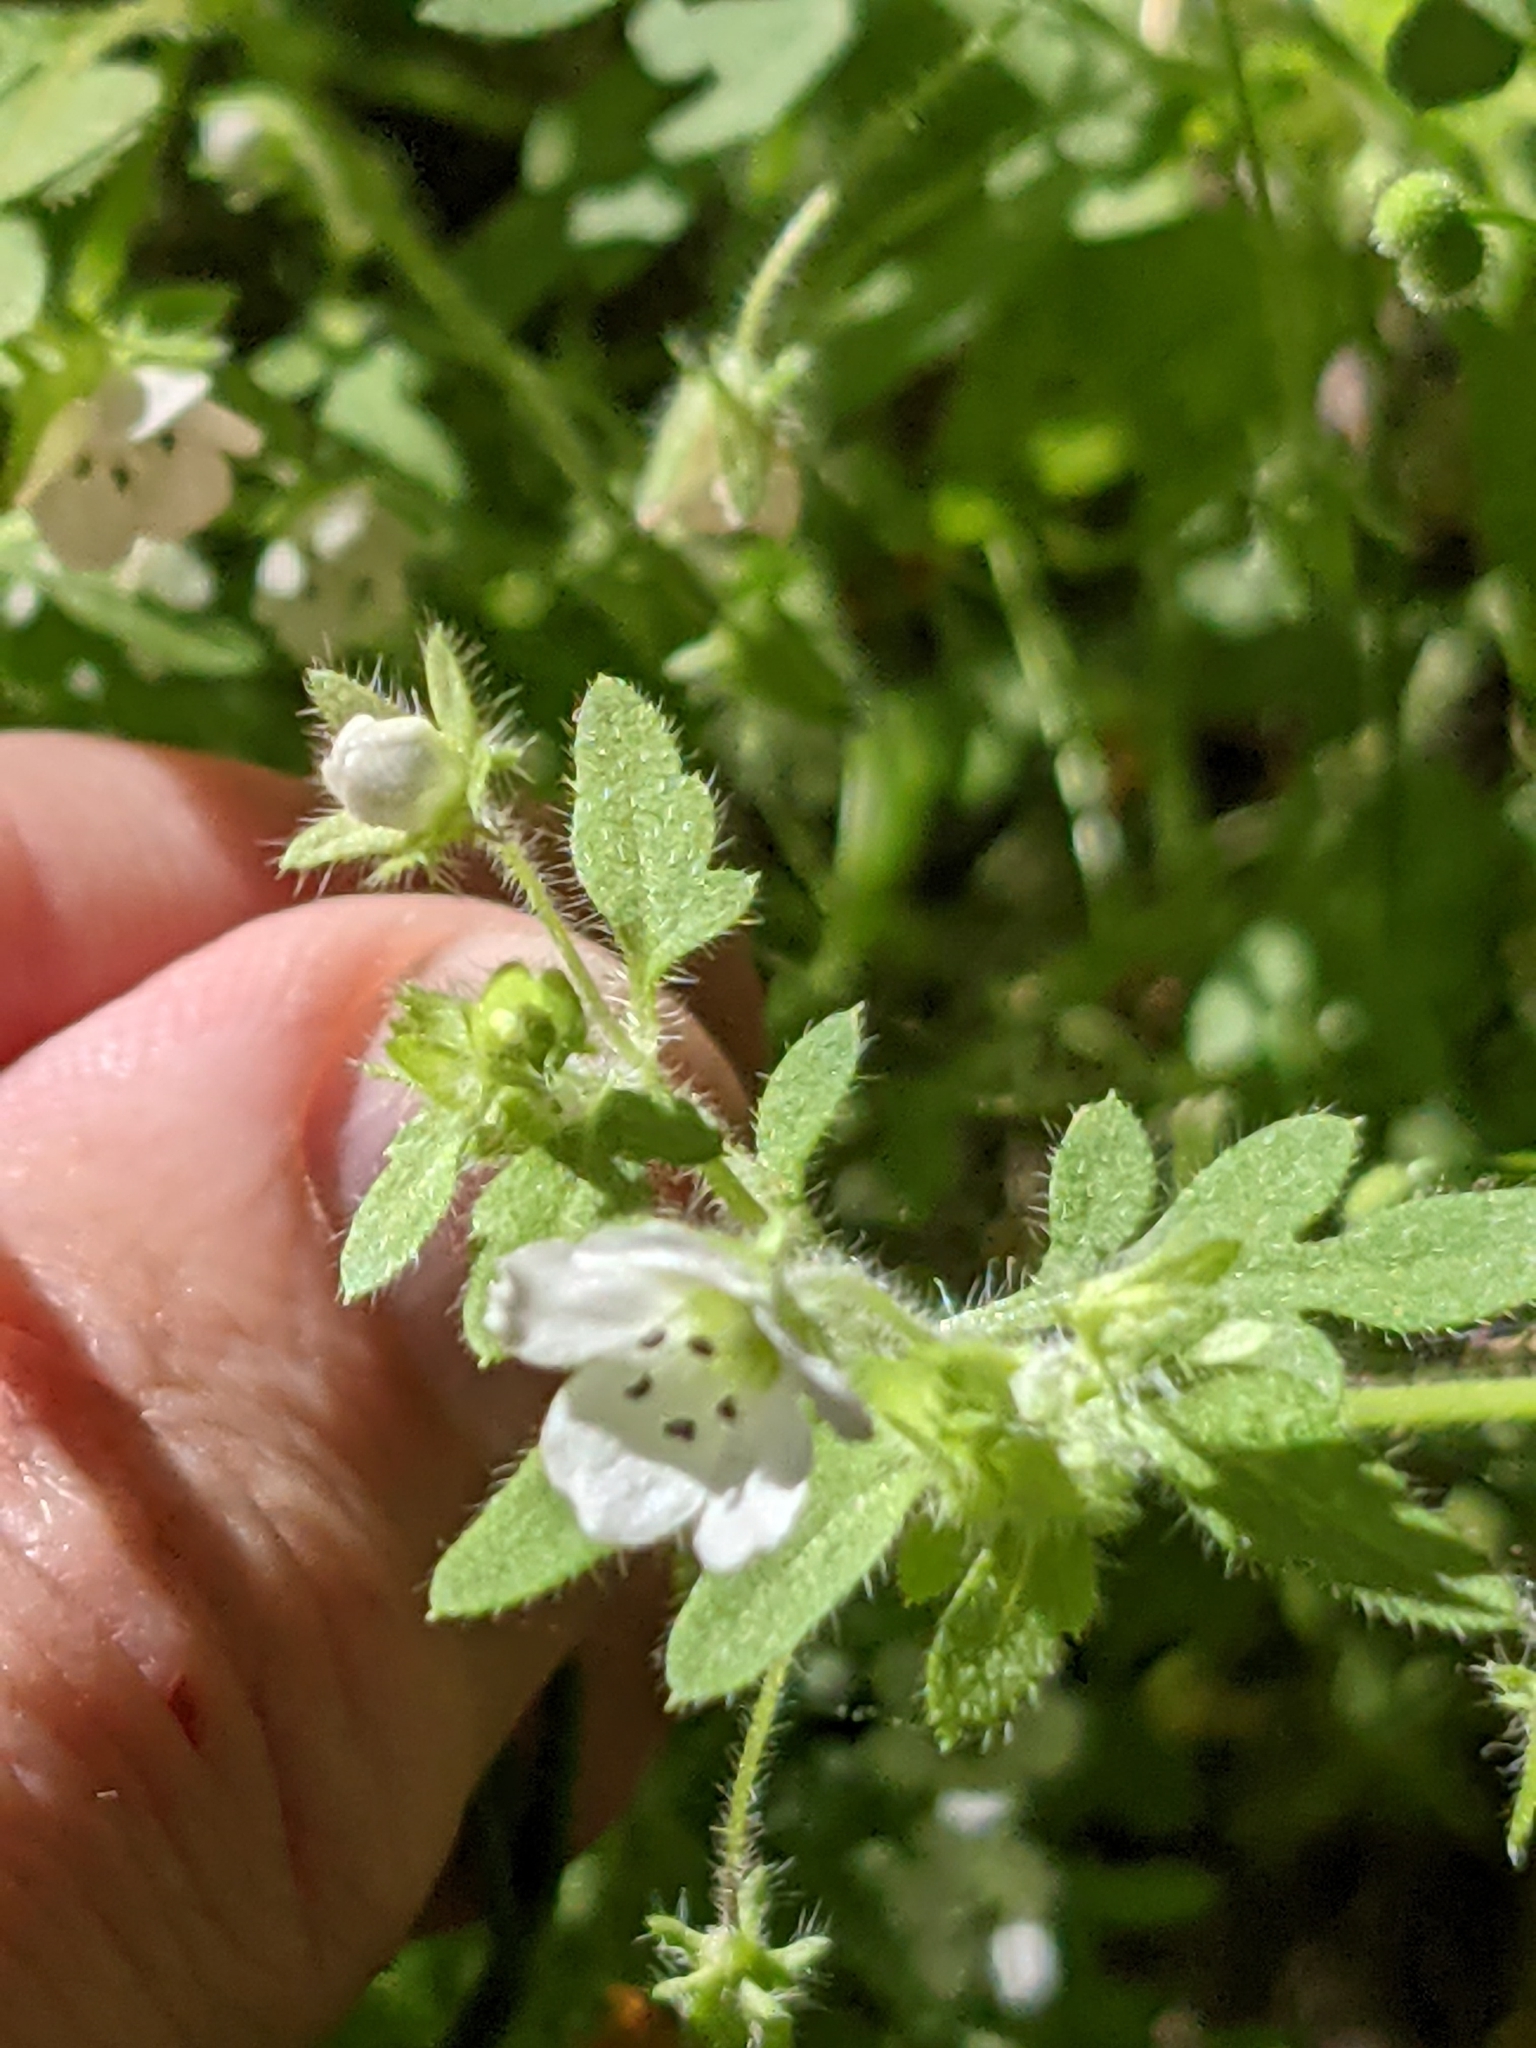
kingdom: Plantae
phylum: Tracheophyta
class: Magnoliopsida
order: Boraginales
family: Hydrophyllaceae
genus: Nemophila
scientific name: Nemophila parviflora
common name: Small-flowered baby-blue-eyes
